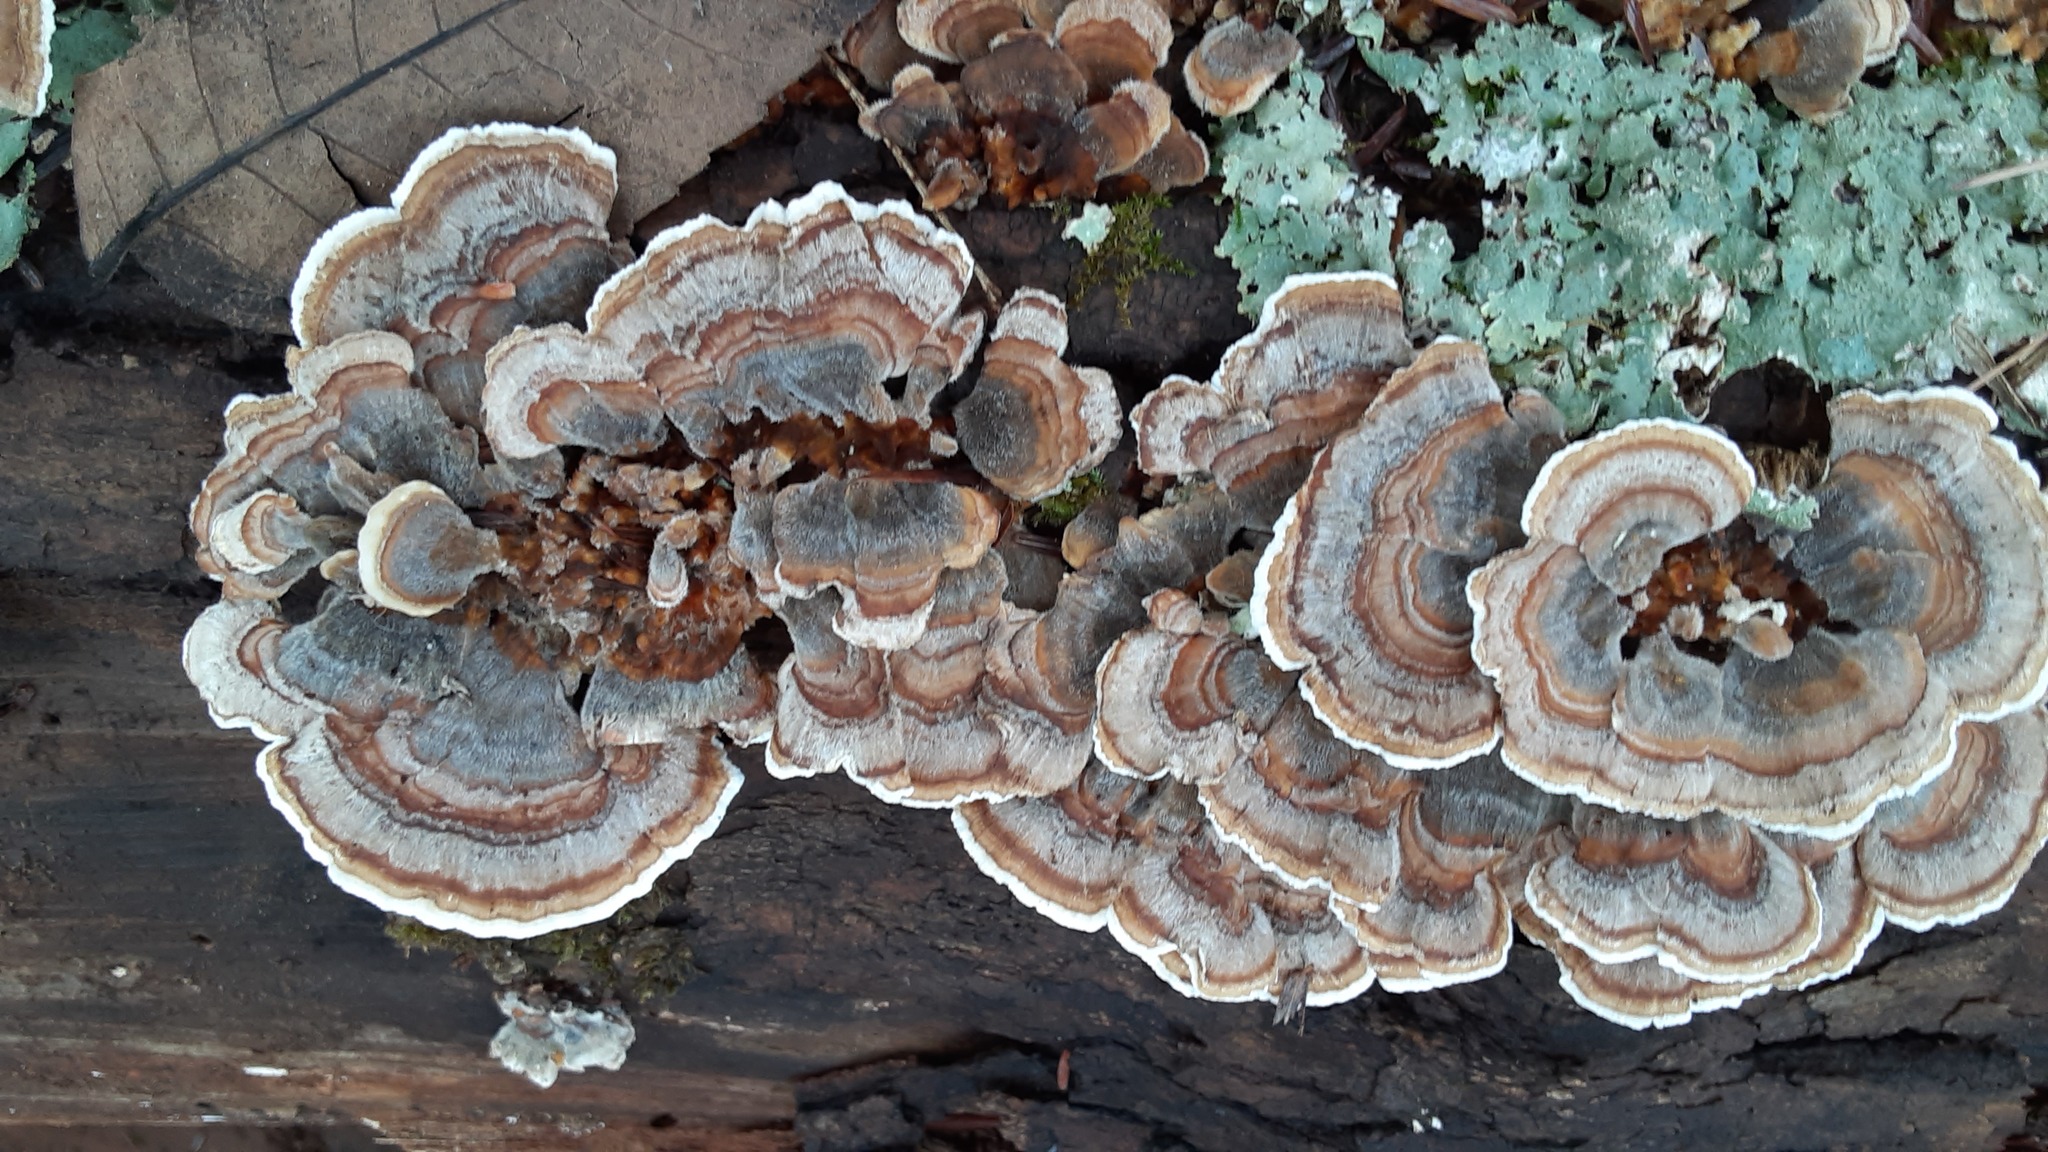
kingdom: Fungi
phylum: Basidiomycota
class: Agaricomycetes
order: Polyporales
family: Polyporaceae
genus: Trametes
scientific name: Trametes versicolor
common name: Turkeytail
